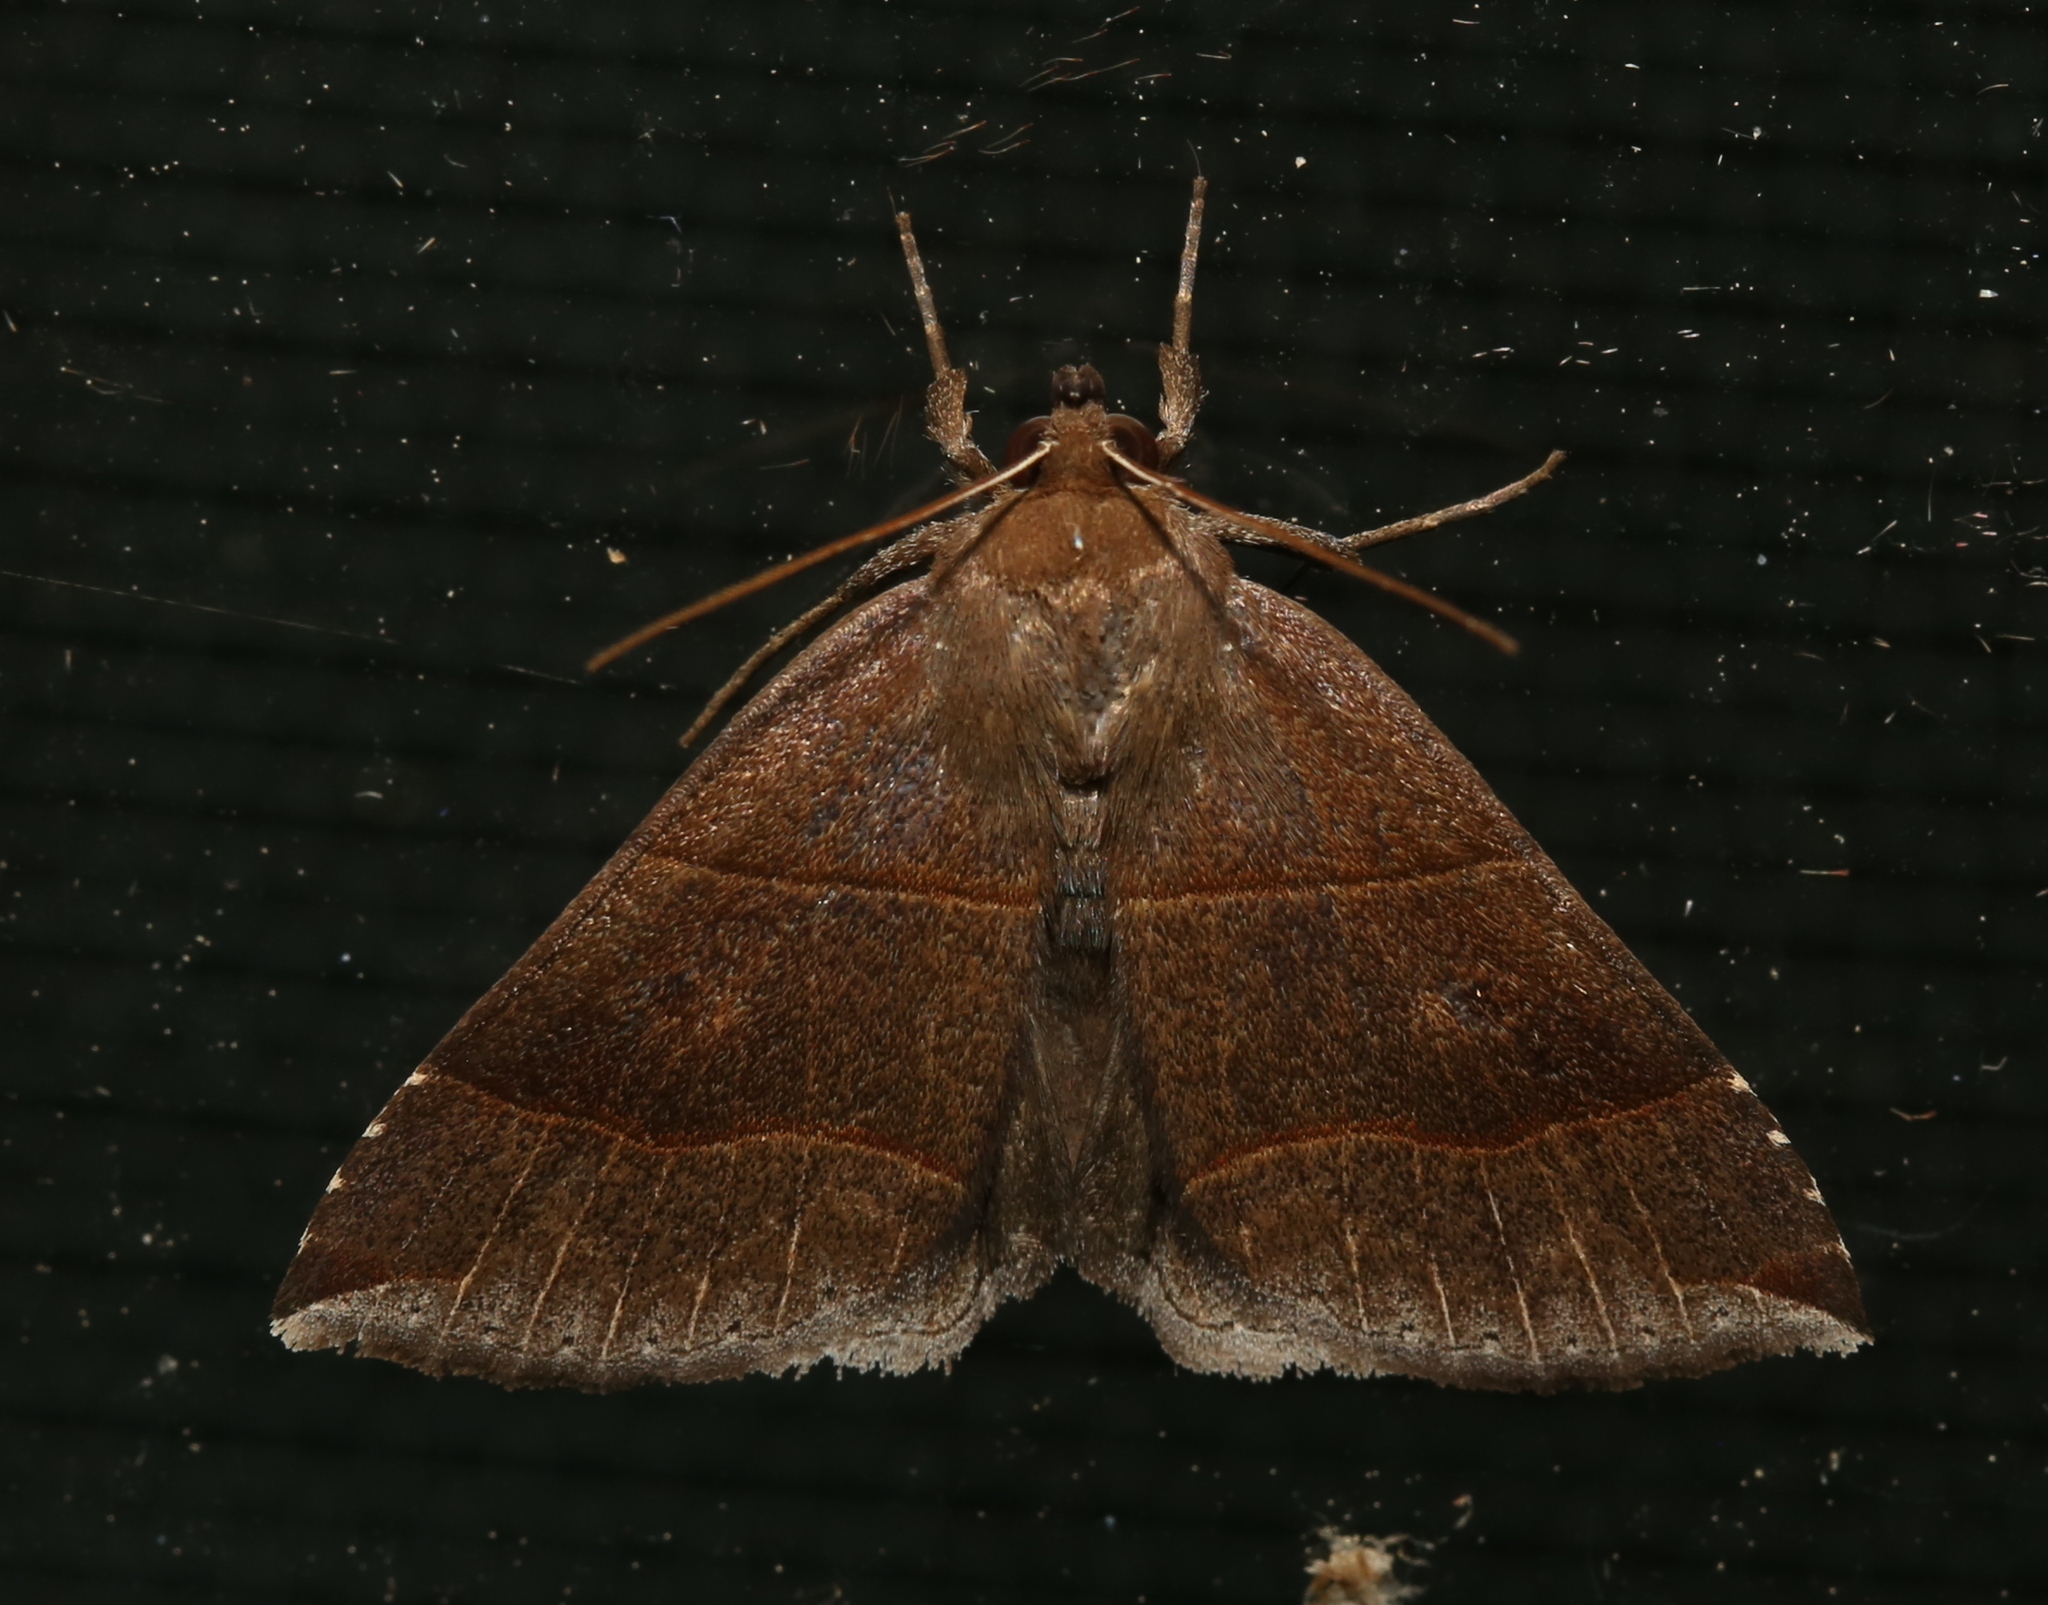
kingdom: Animalia
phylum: Arthropoda
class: Insecta
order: Lepidoptera
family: Erebidae
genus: Parallelia
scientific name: Parallelia bistriaris
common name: Maple looper moth
